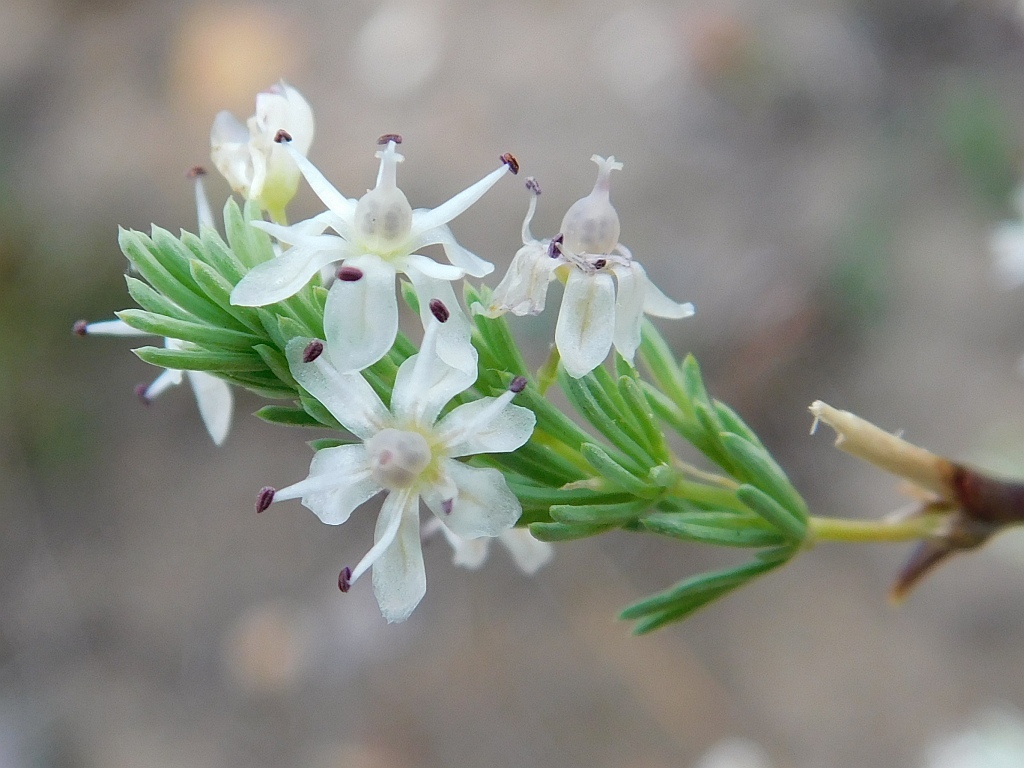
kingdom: Plantae
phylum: Tracheophyta
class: Liliopsida
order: Asparagales
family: Asparagaceae
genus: Asparagus
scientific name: Asparagus rubicundus
